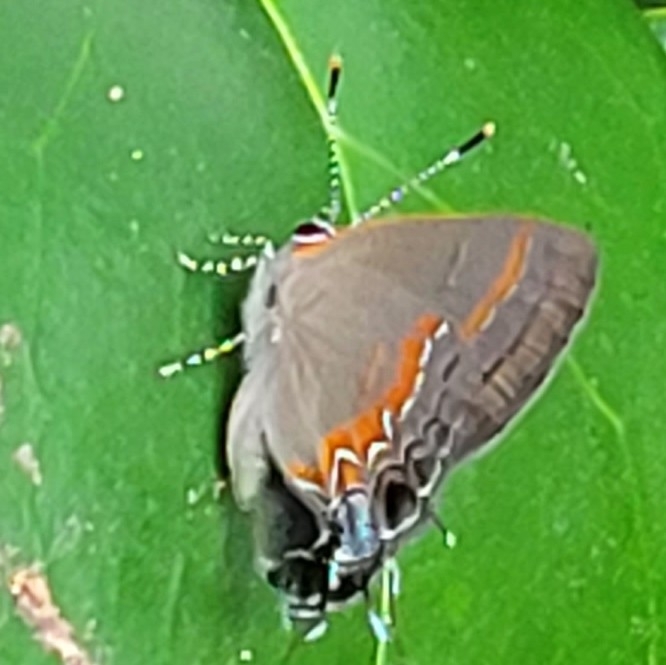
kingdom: Animalia
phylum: Arthropoda
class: Insecta
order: Lepidoptera
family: Lycaenidae
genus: Calycopis
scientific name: Calycopis cecrops
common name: Red-banded hairstreak
